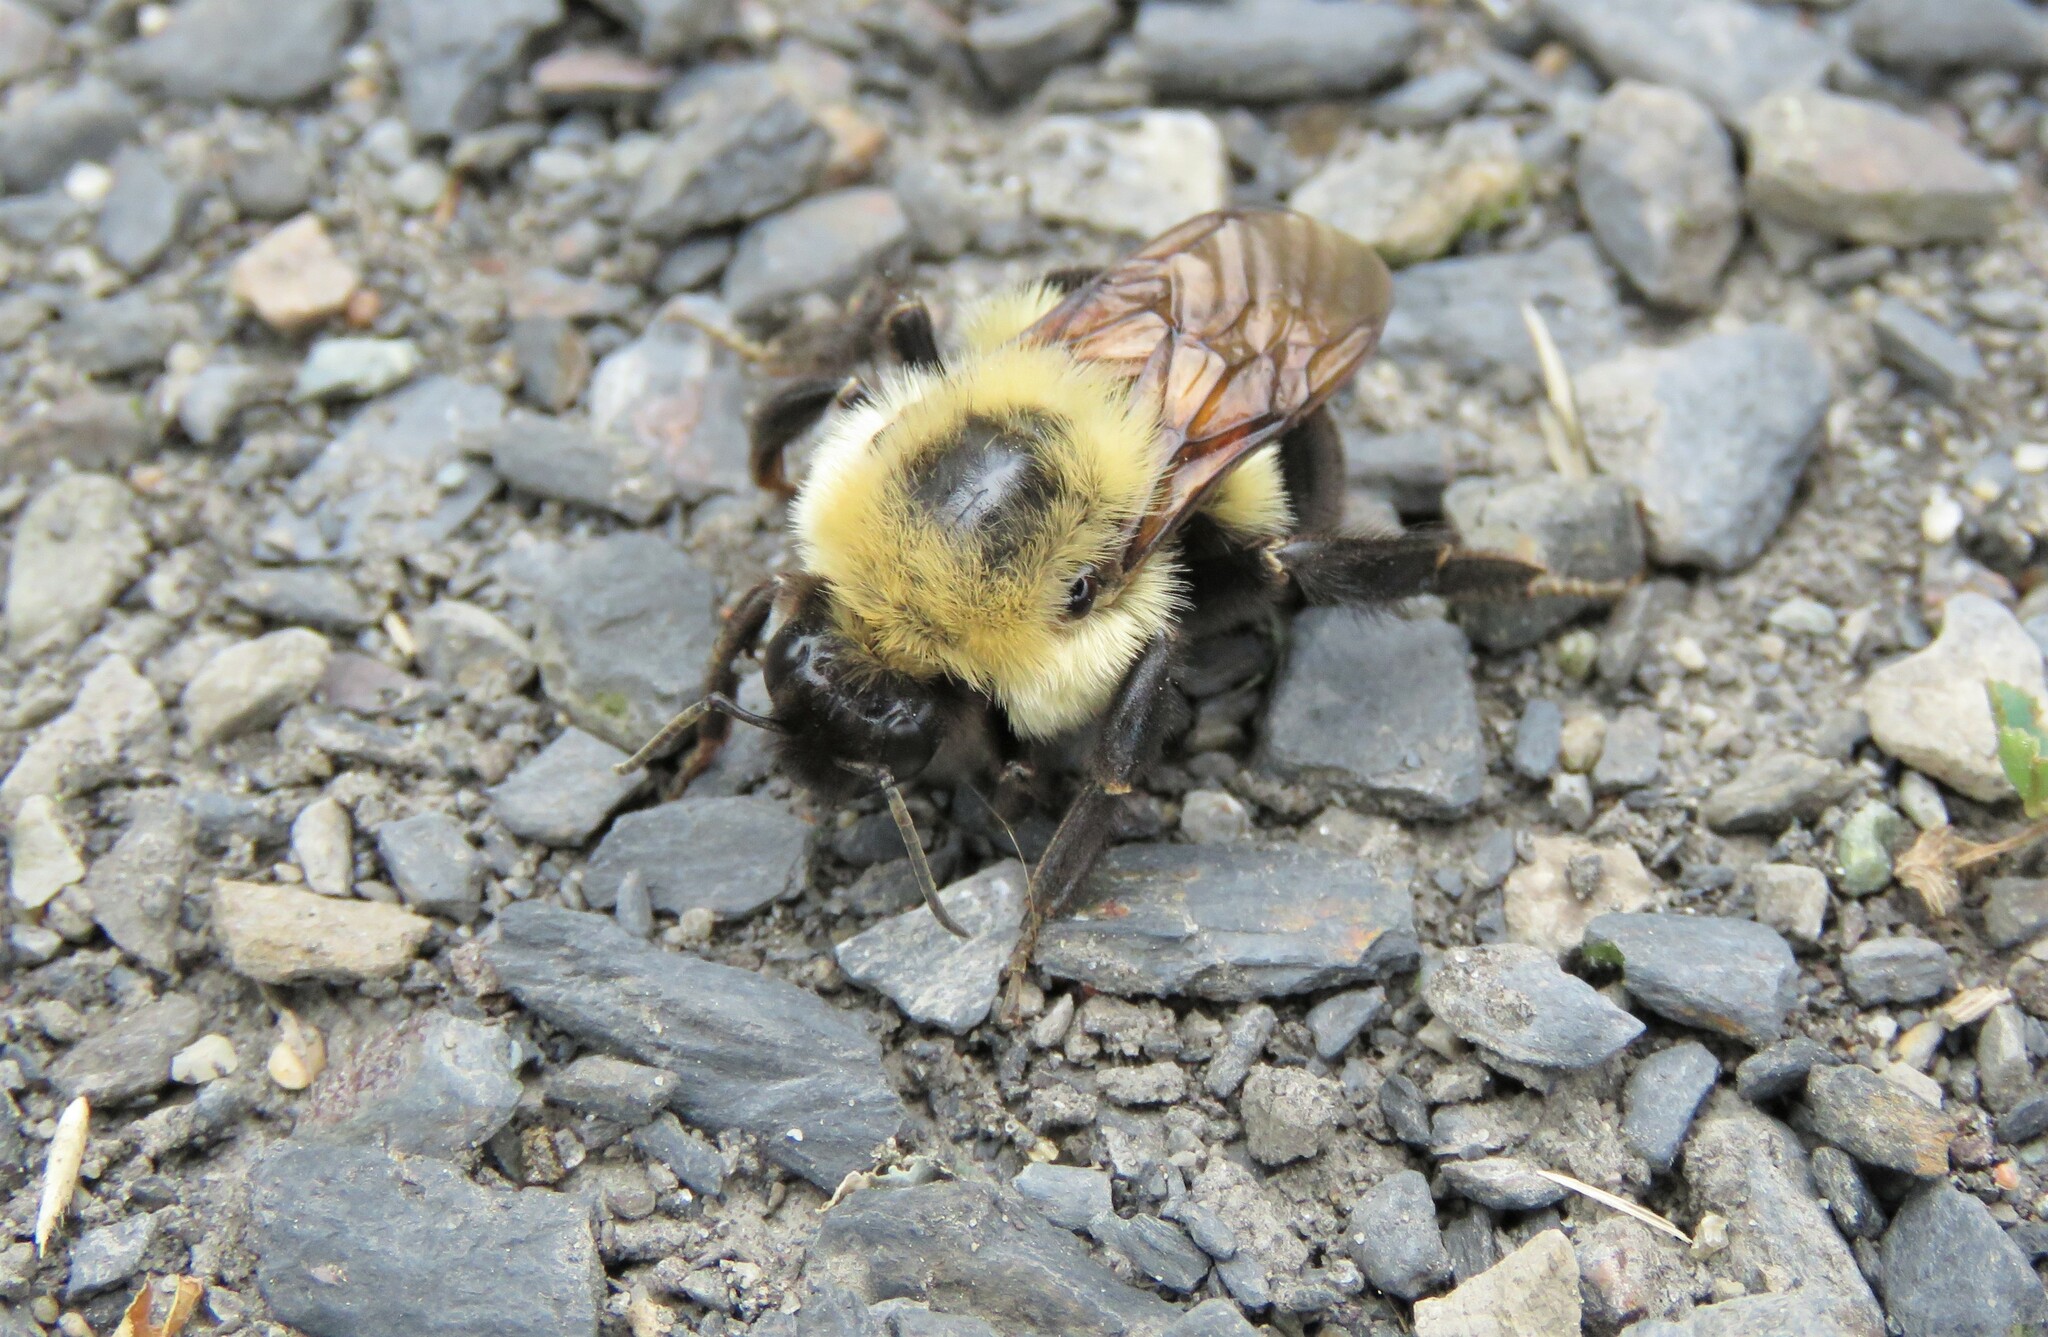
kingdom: Animalia
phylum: Arthropoda
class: Insecta
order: Hymenoptera
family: Apidae
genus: Bombus
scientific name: Bombus bimaculatus
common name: Two-spotted bumble bee
